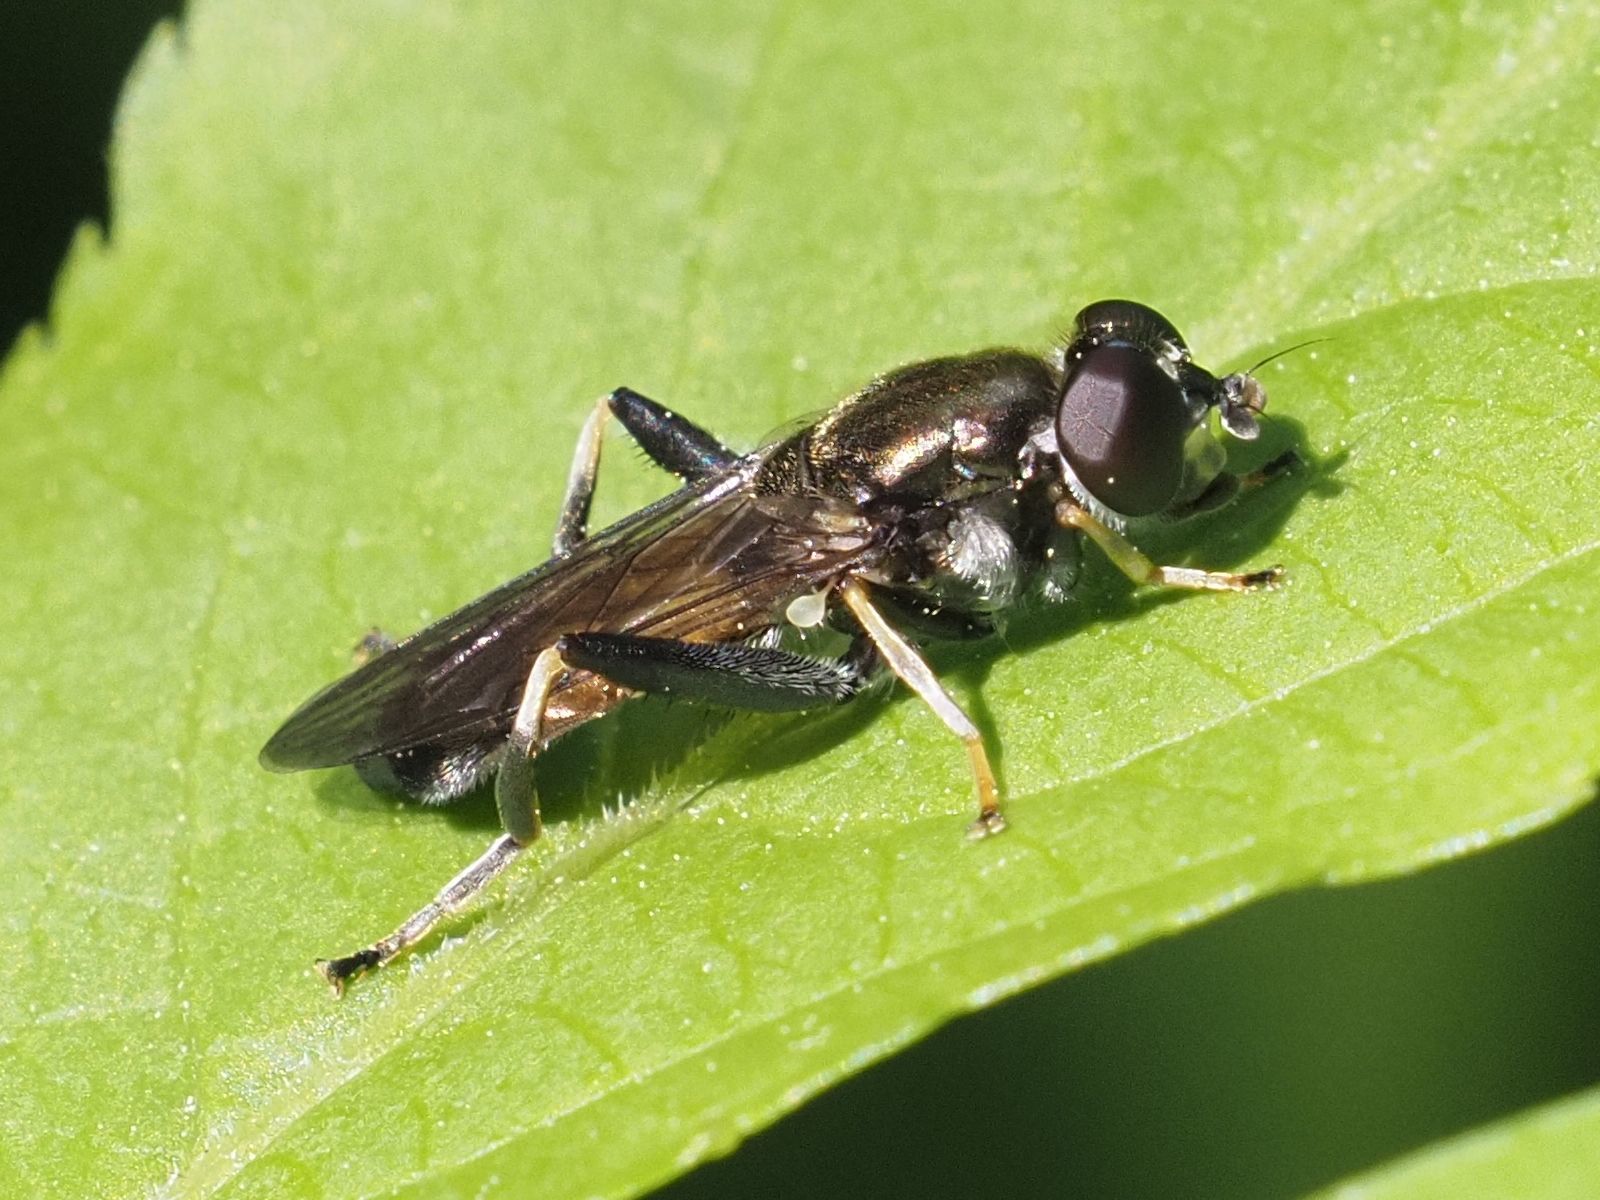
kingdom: Animalia
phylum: Arthropoda
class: Insecta
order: Diptera
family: Syrphidae
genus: Xylota
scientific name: Xylota segnis
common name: Brown-toed forest fly
